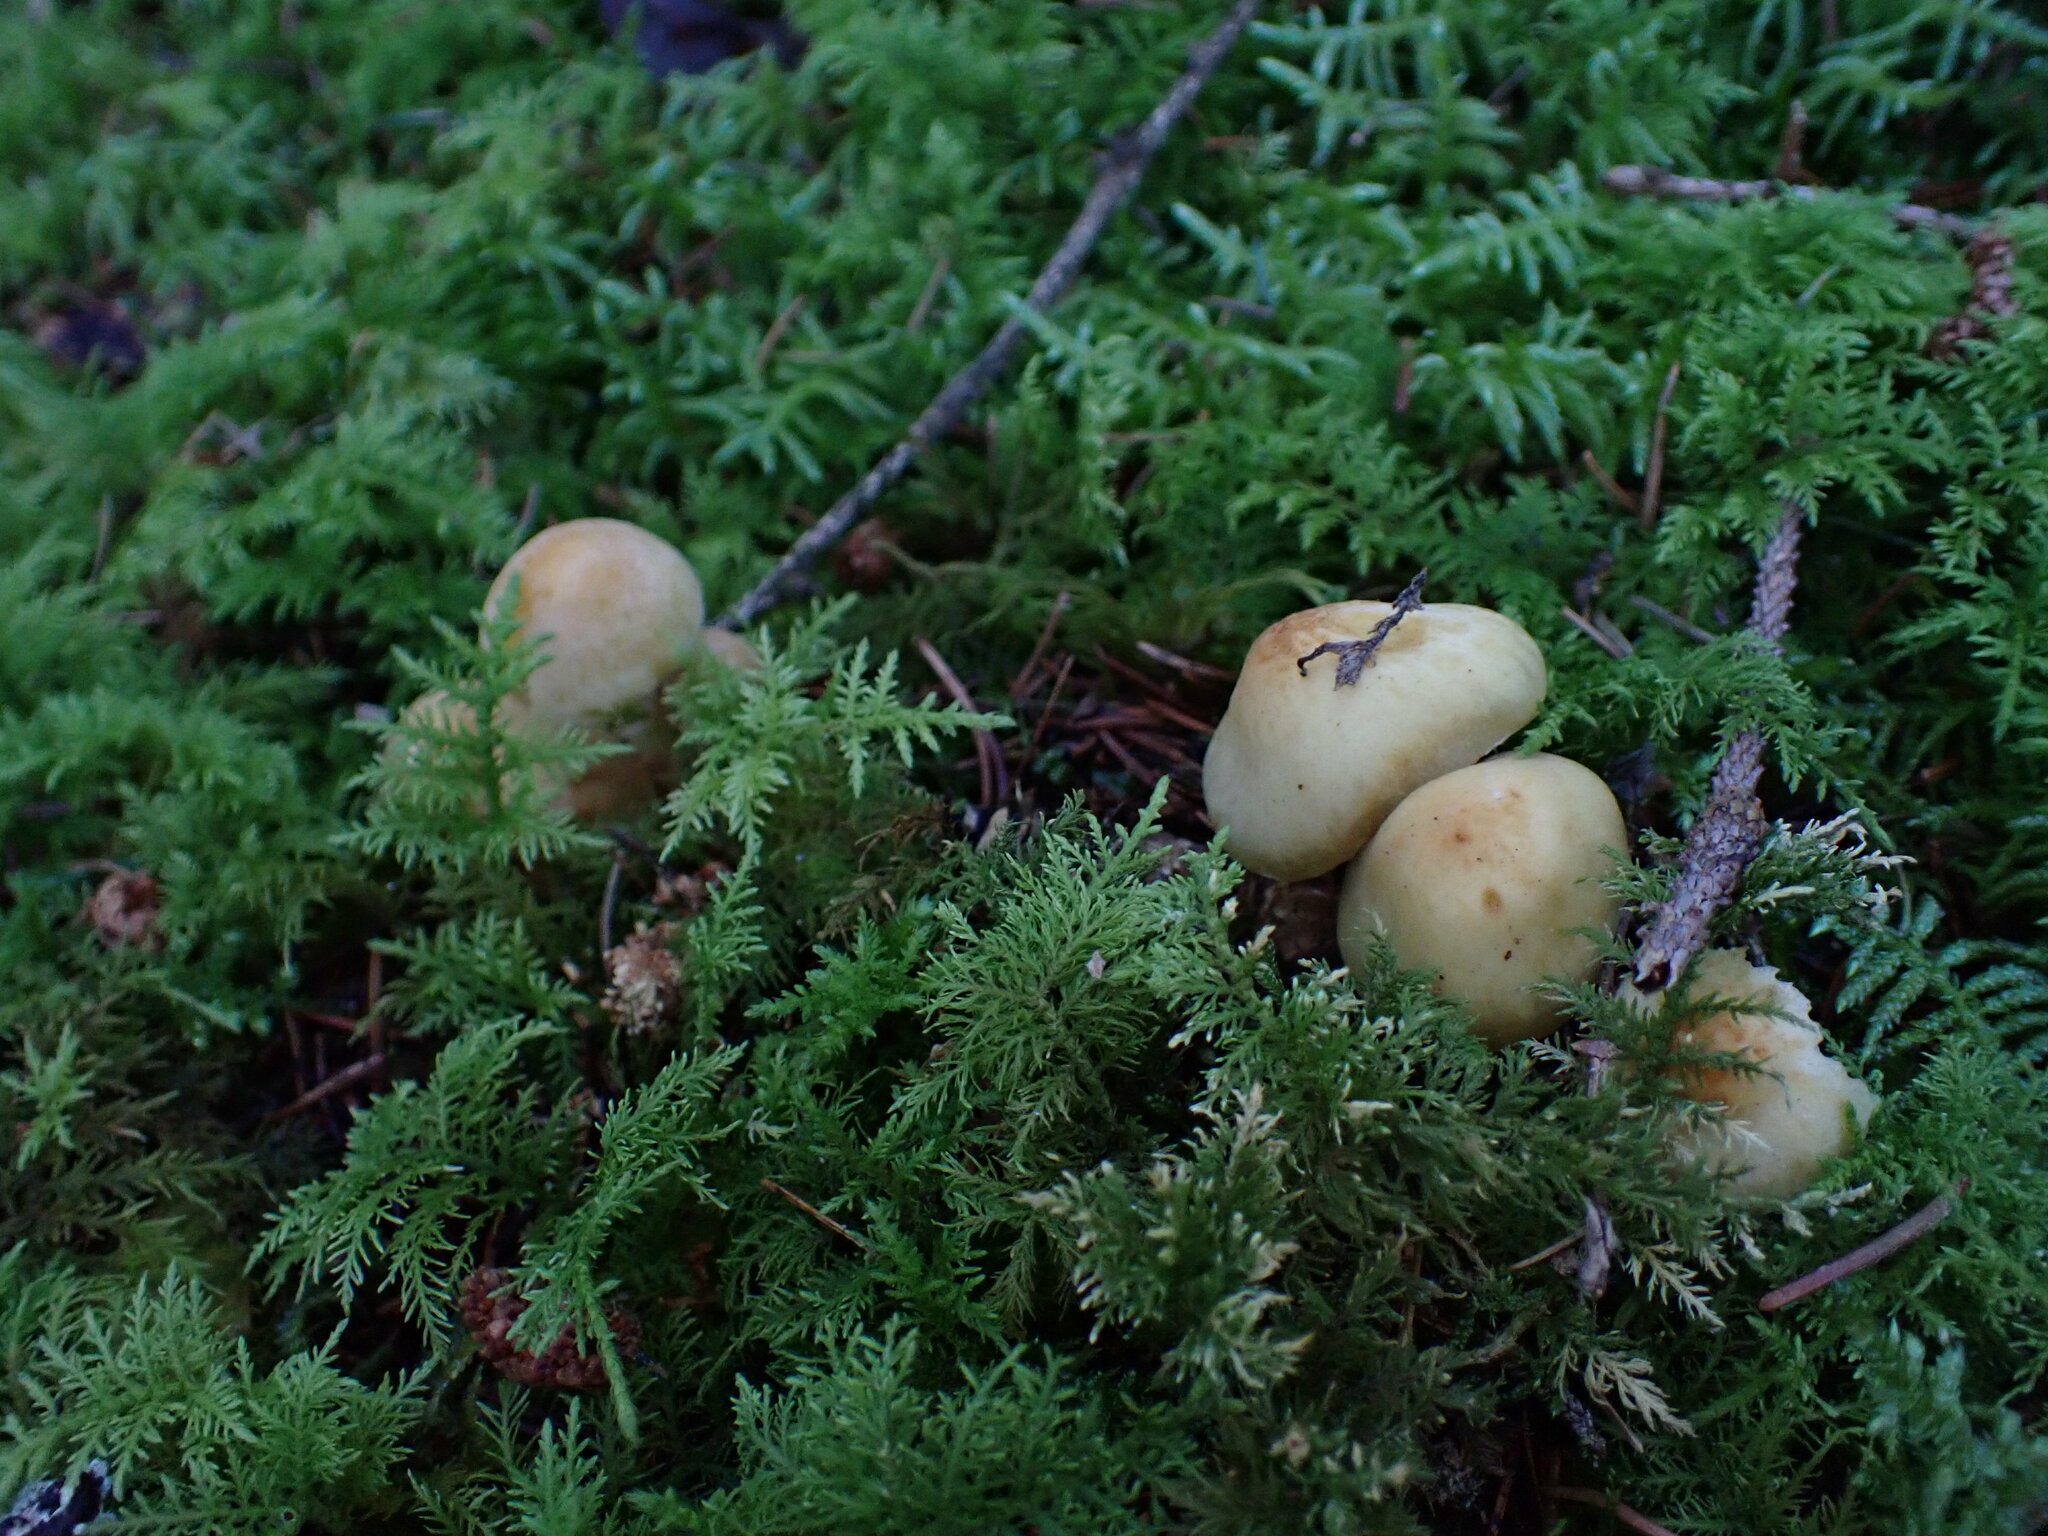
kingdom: Fungi
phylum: Basidiomycota
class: Agaricomycetes
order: Agaricales
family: Strophariaceae
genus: Hypholoma
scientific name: Hypholoma capnoides
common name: Conifer tuft
